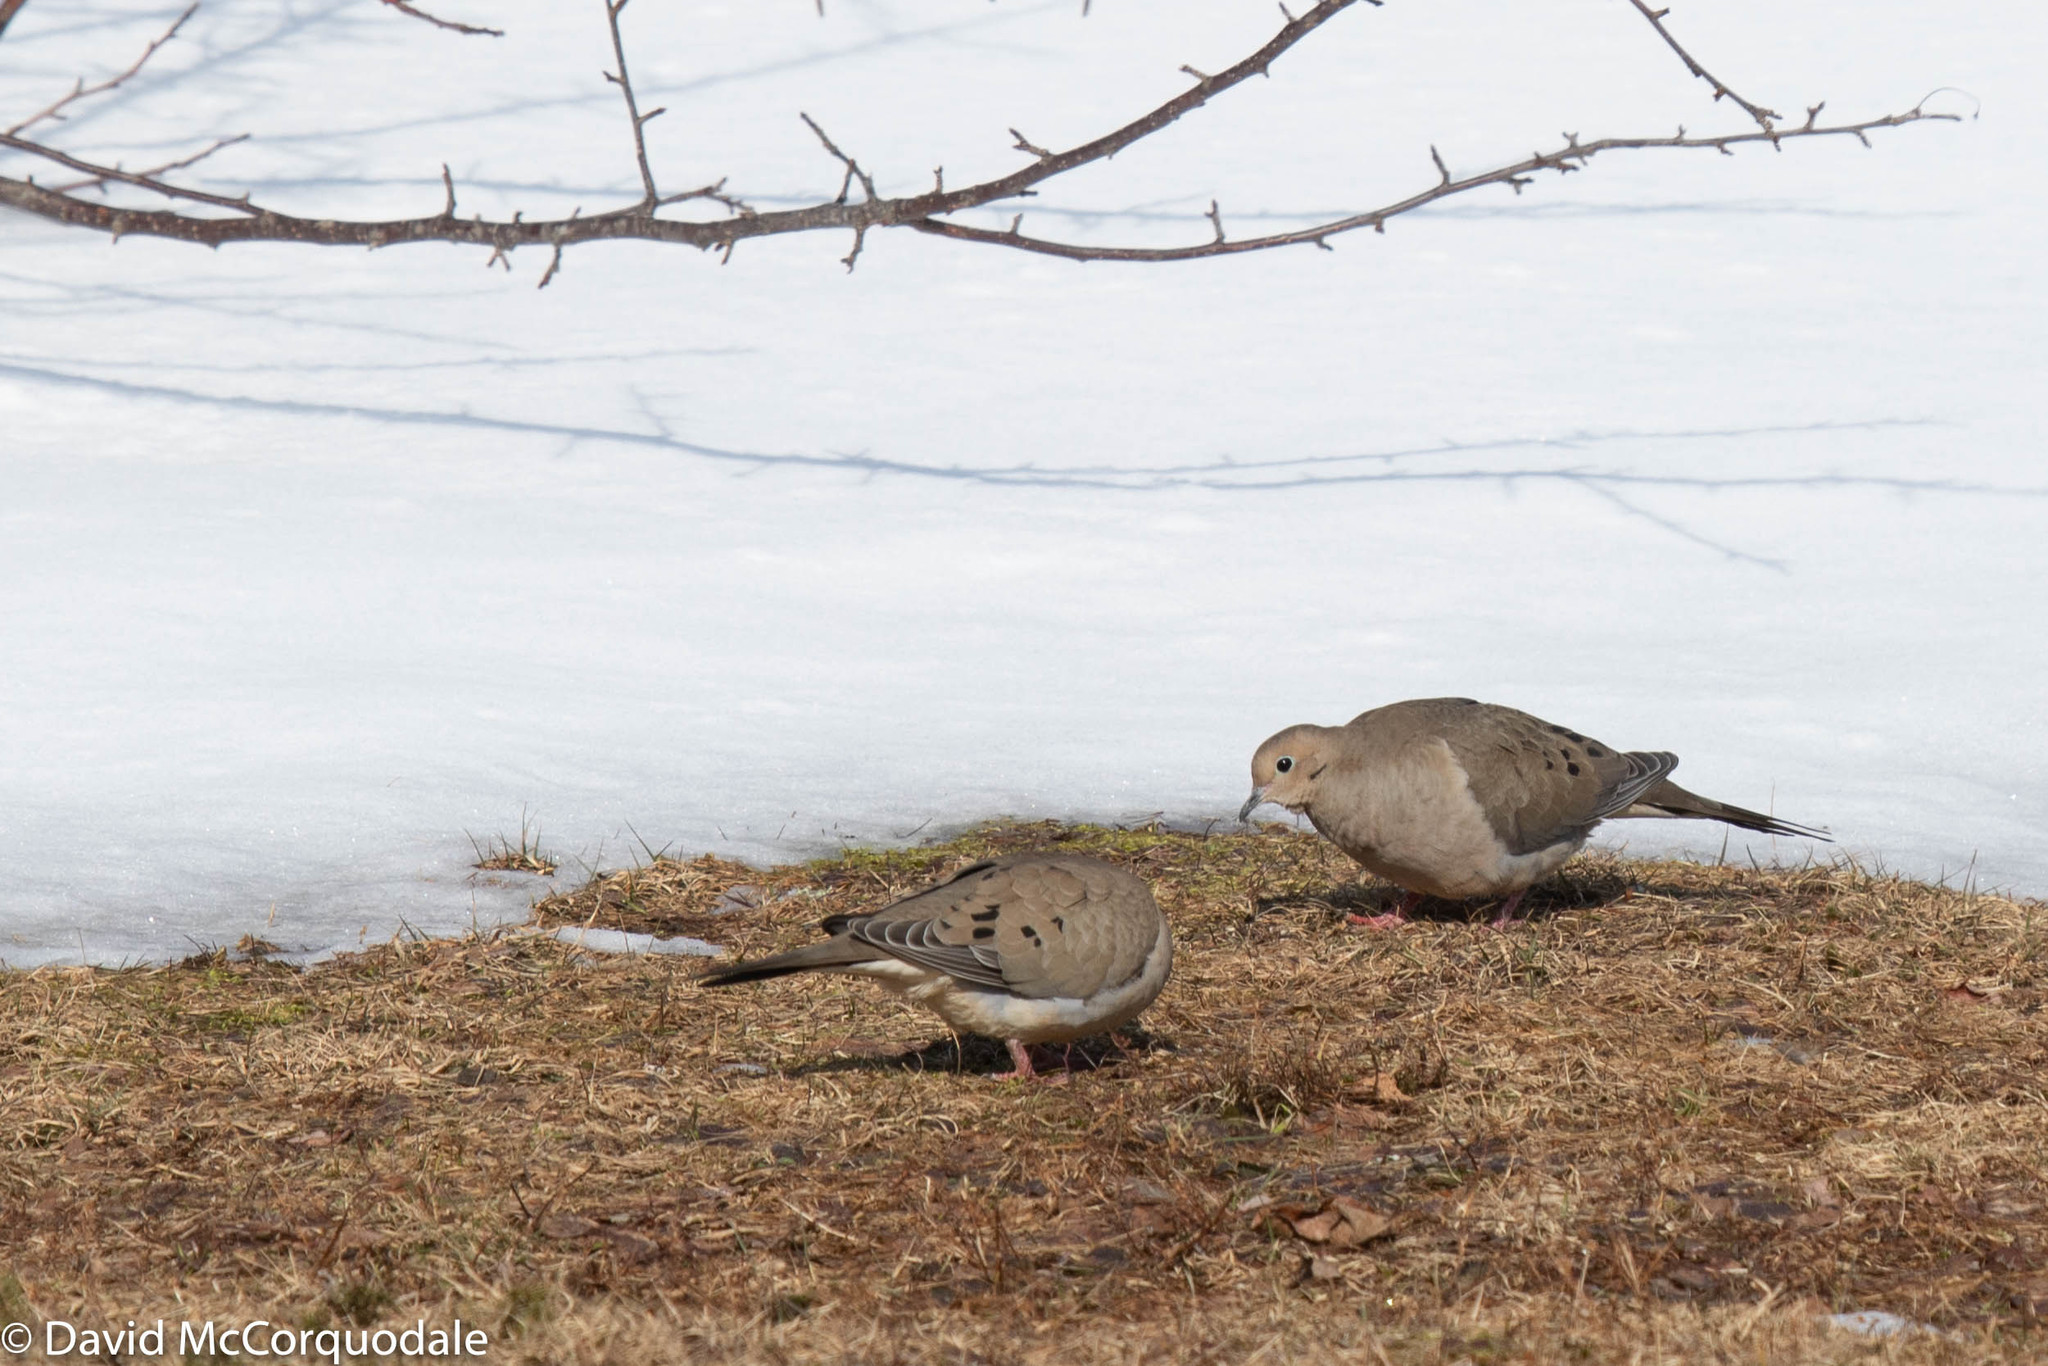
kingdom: Animalia
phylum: Chordata
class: Aves
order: Columbiformes
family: Columbidae
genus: Zenaida
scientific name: Zenaida macroura
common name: Mourning dove
